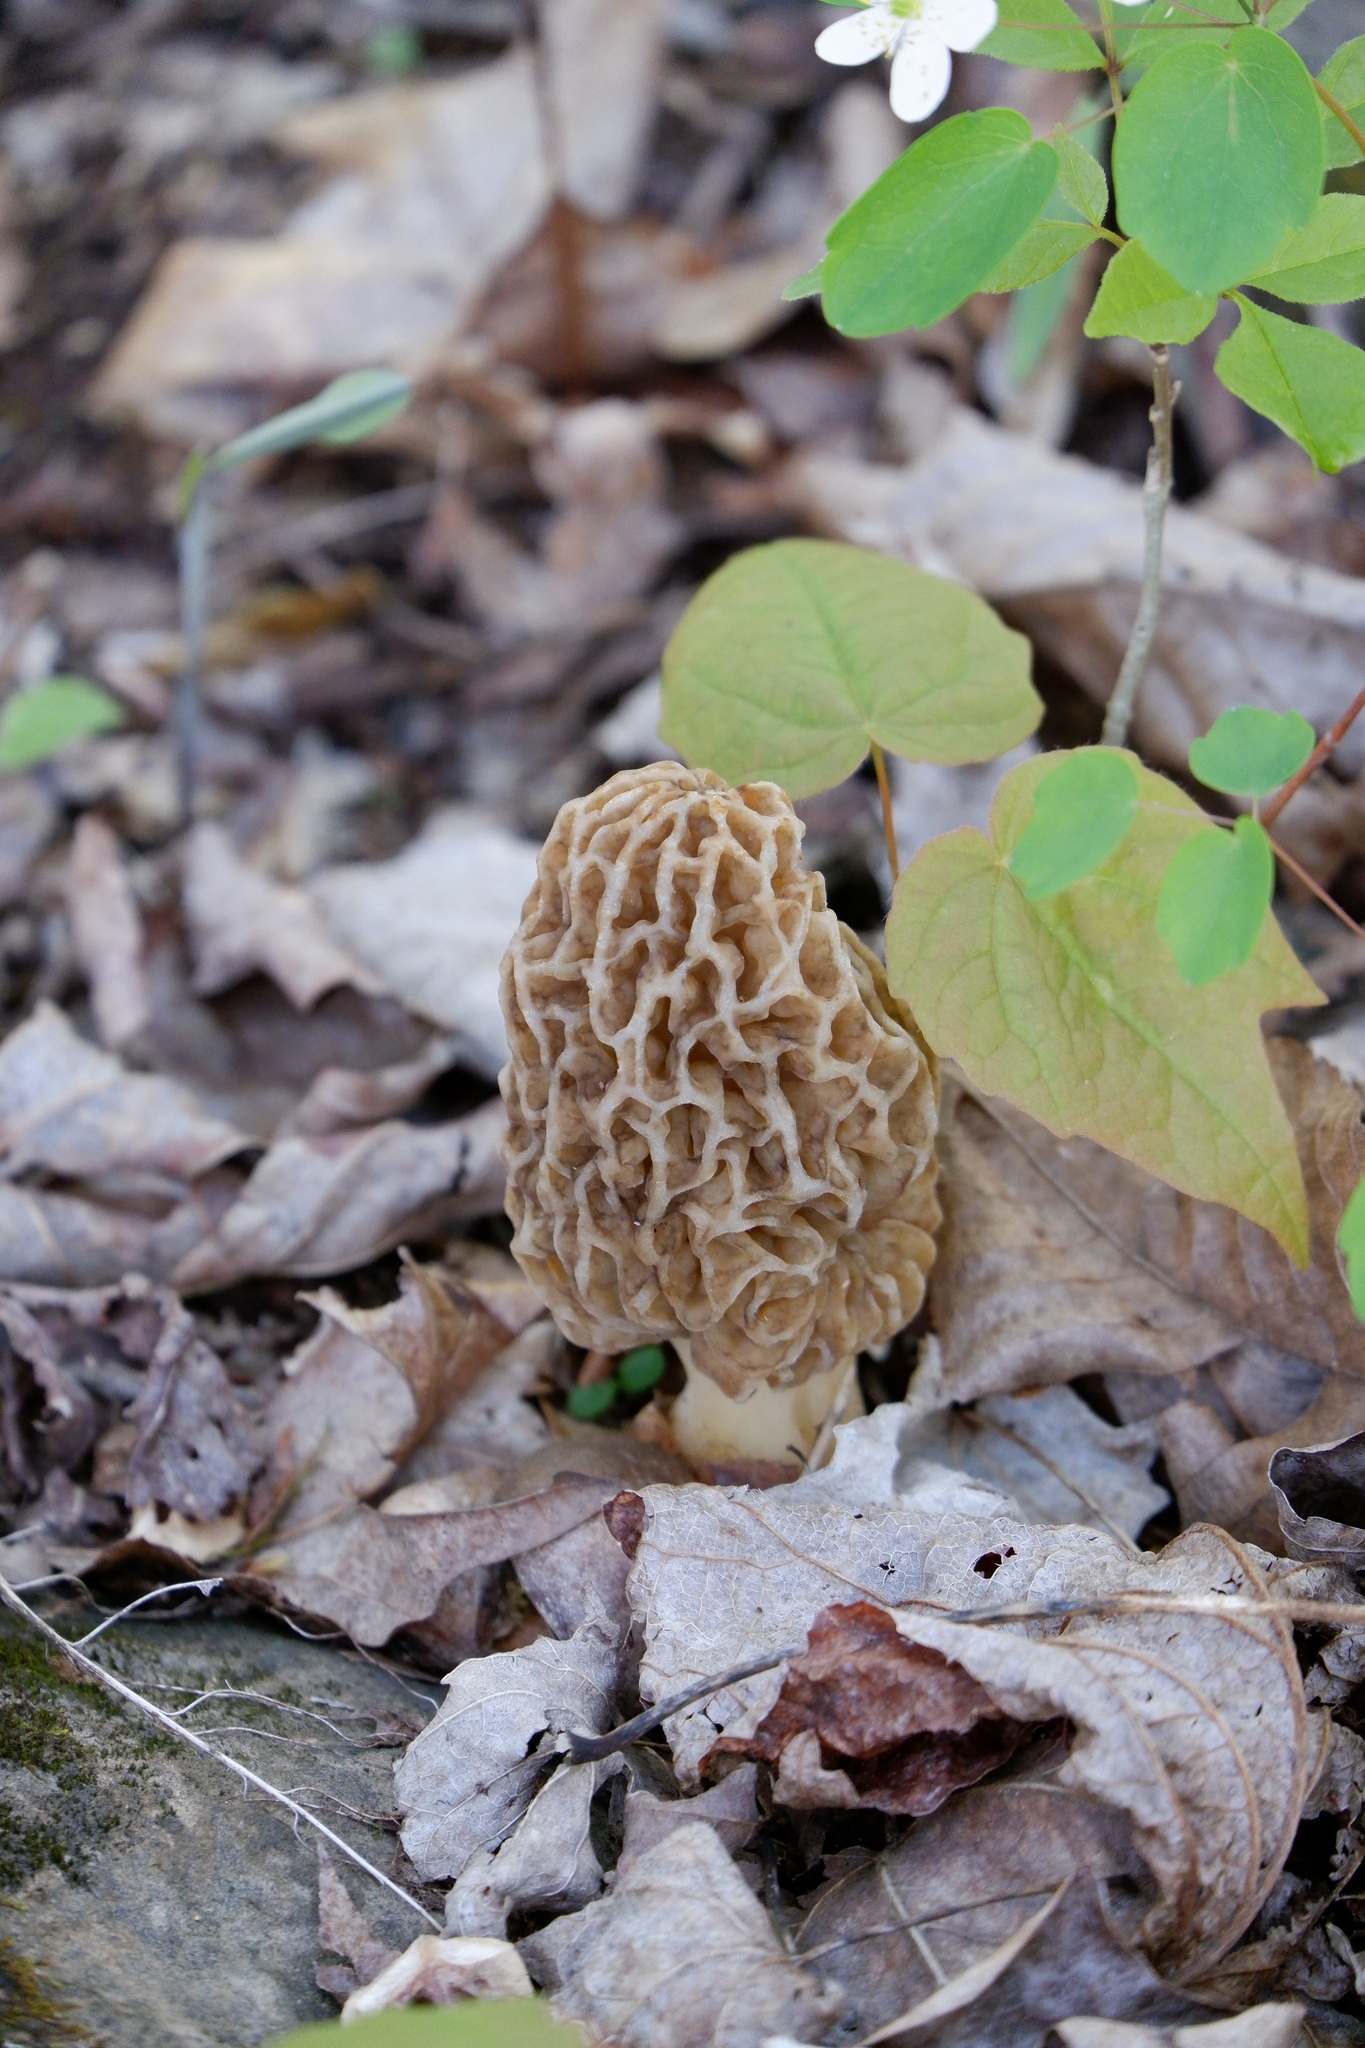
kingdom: Fungi
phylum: Ascomycota
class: Pezizomycetes
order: Pezizales
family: Morchellaceae
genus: Morchella
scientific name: Morchella americana
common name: White morel
